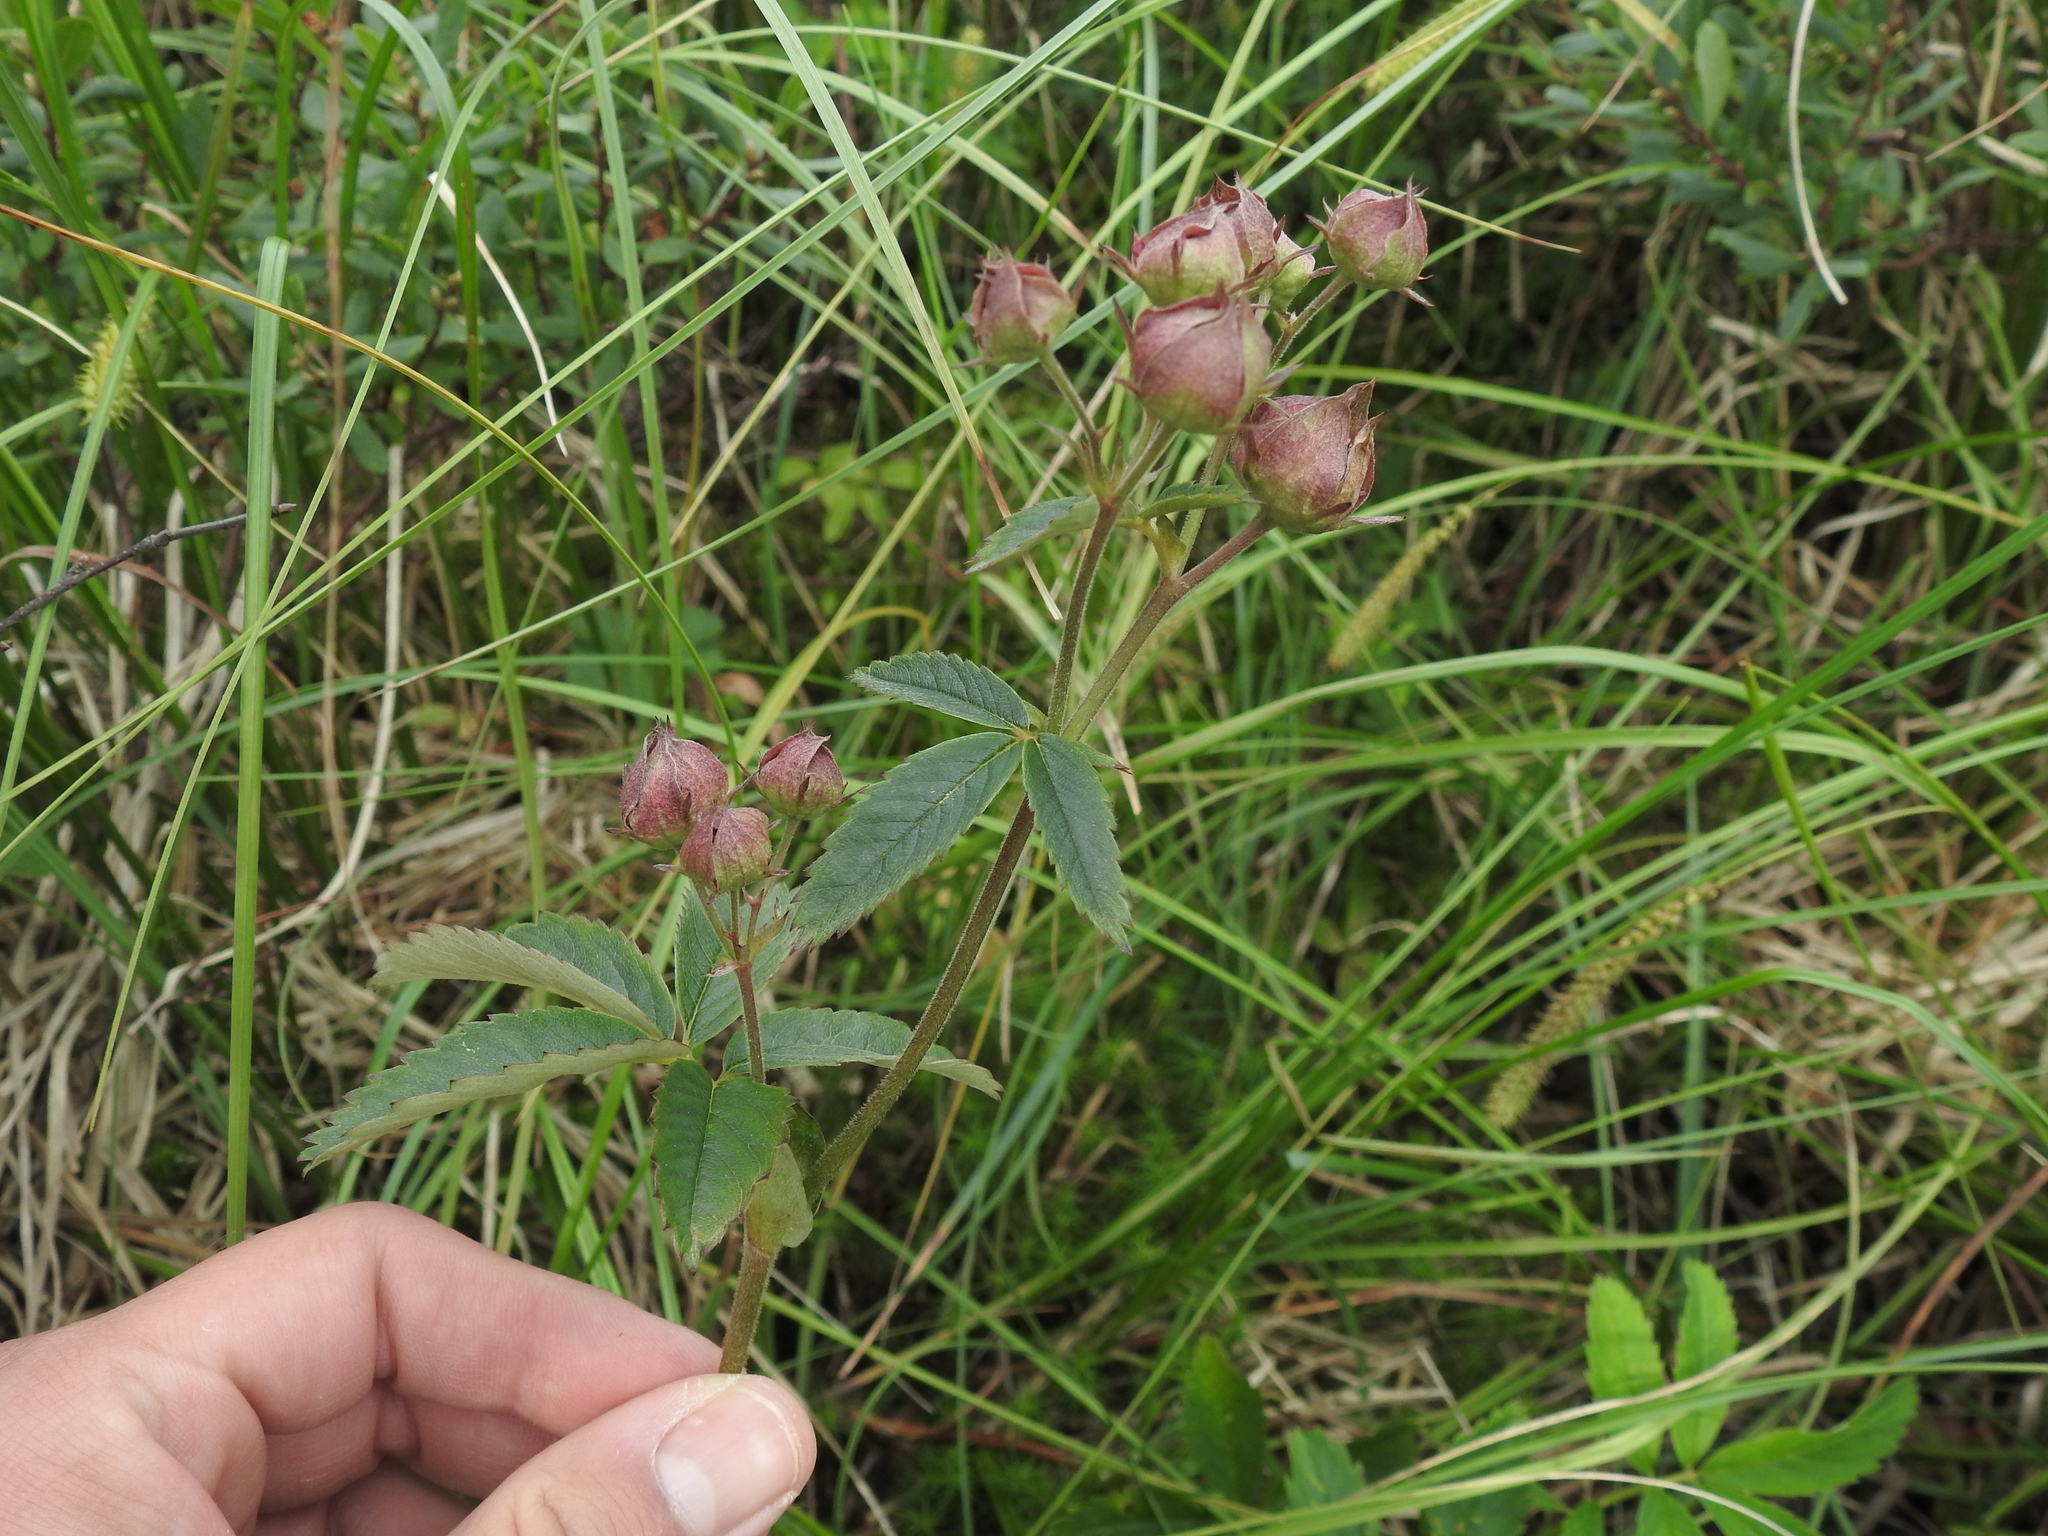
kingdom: Plantae
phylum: Tracheophyta
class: Magnoliopsida
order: Rosales
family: Rosaceae
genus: Comarum
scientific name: Comarum palustre
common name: Marsh cinquefoil
